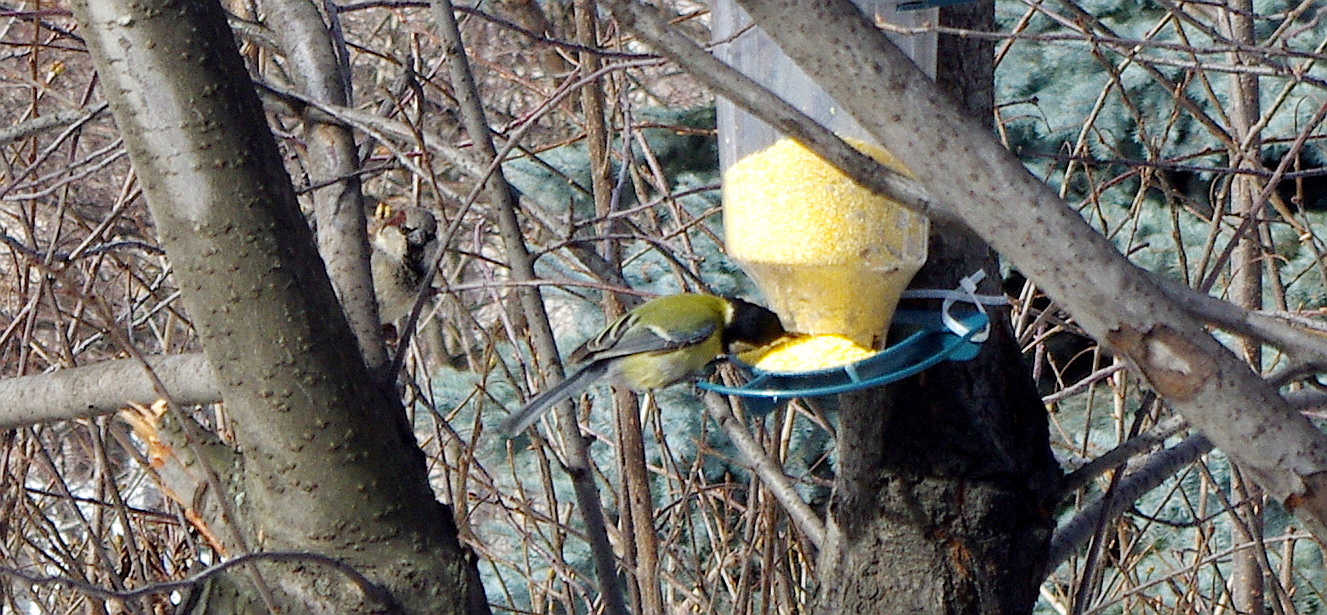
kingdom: Animalia
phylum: Chordata
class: Aves
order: Passeriformes
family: Paridae
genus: Parus
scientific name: Parus major
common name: Great tit
